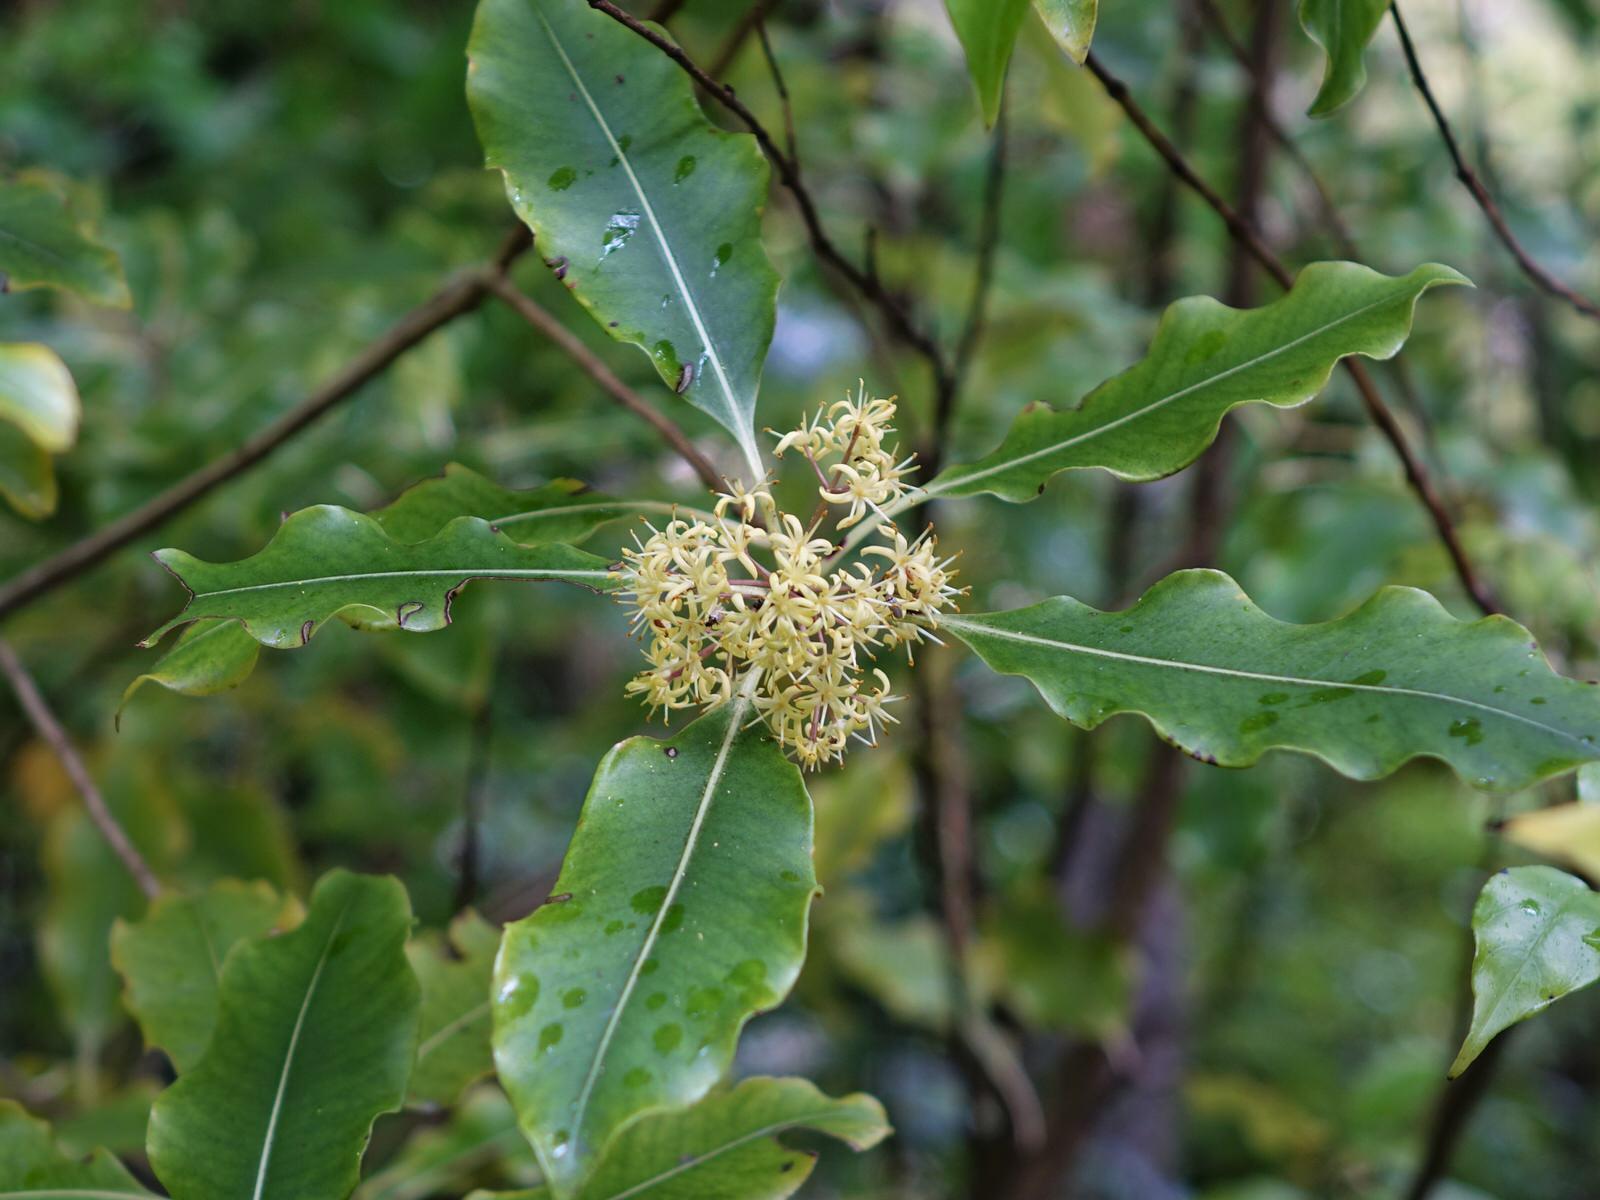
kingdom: Plantae
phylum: Tracheophyta
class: Magnoliopsida
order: Apiales
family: Pittosporaceae
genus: Pittosporum
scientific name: Pittosporum eugenioides
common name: Lemonwood
